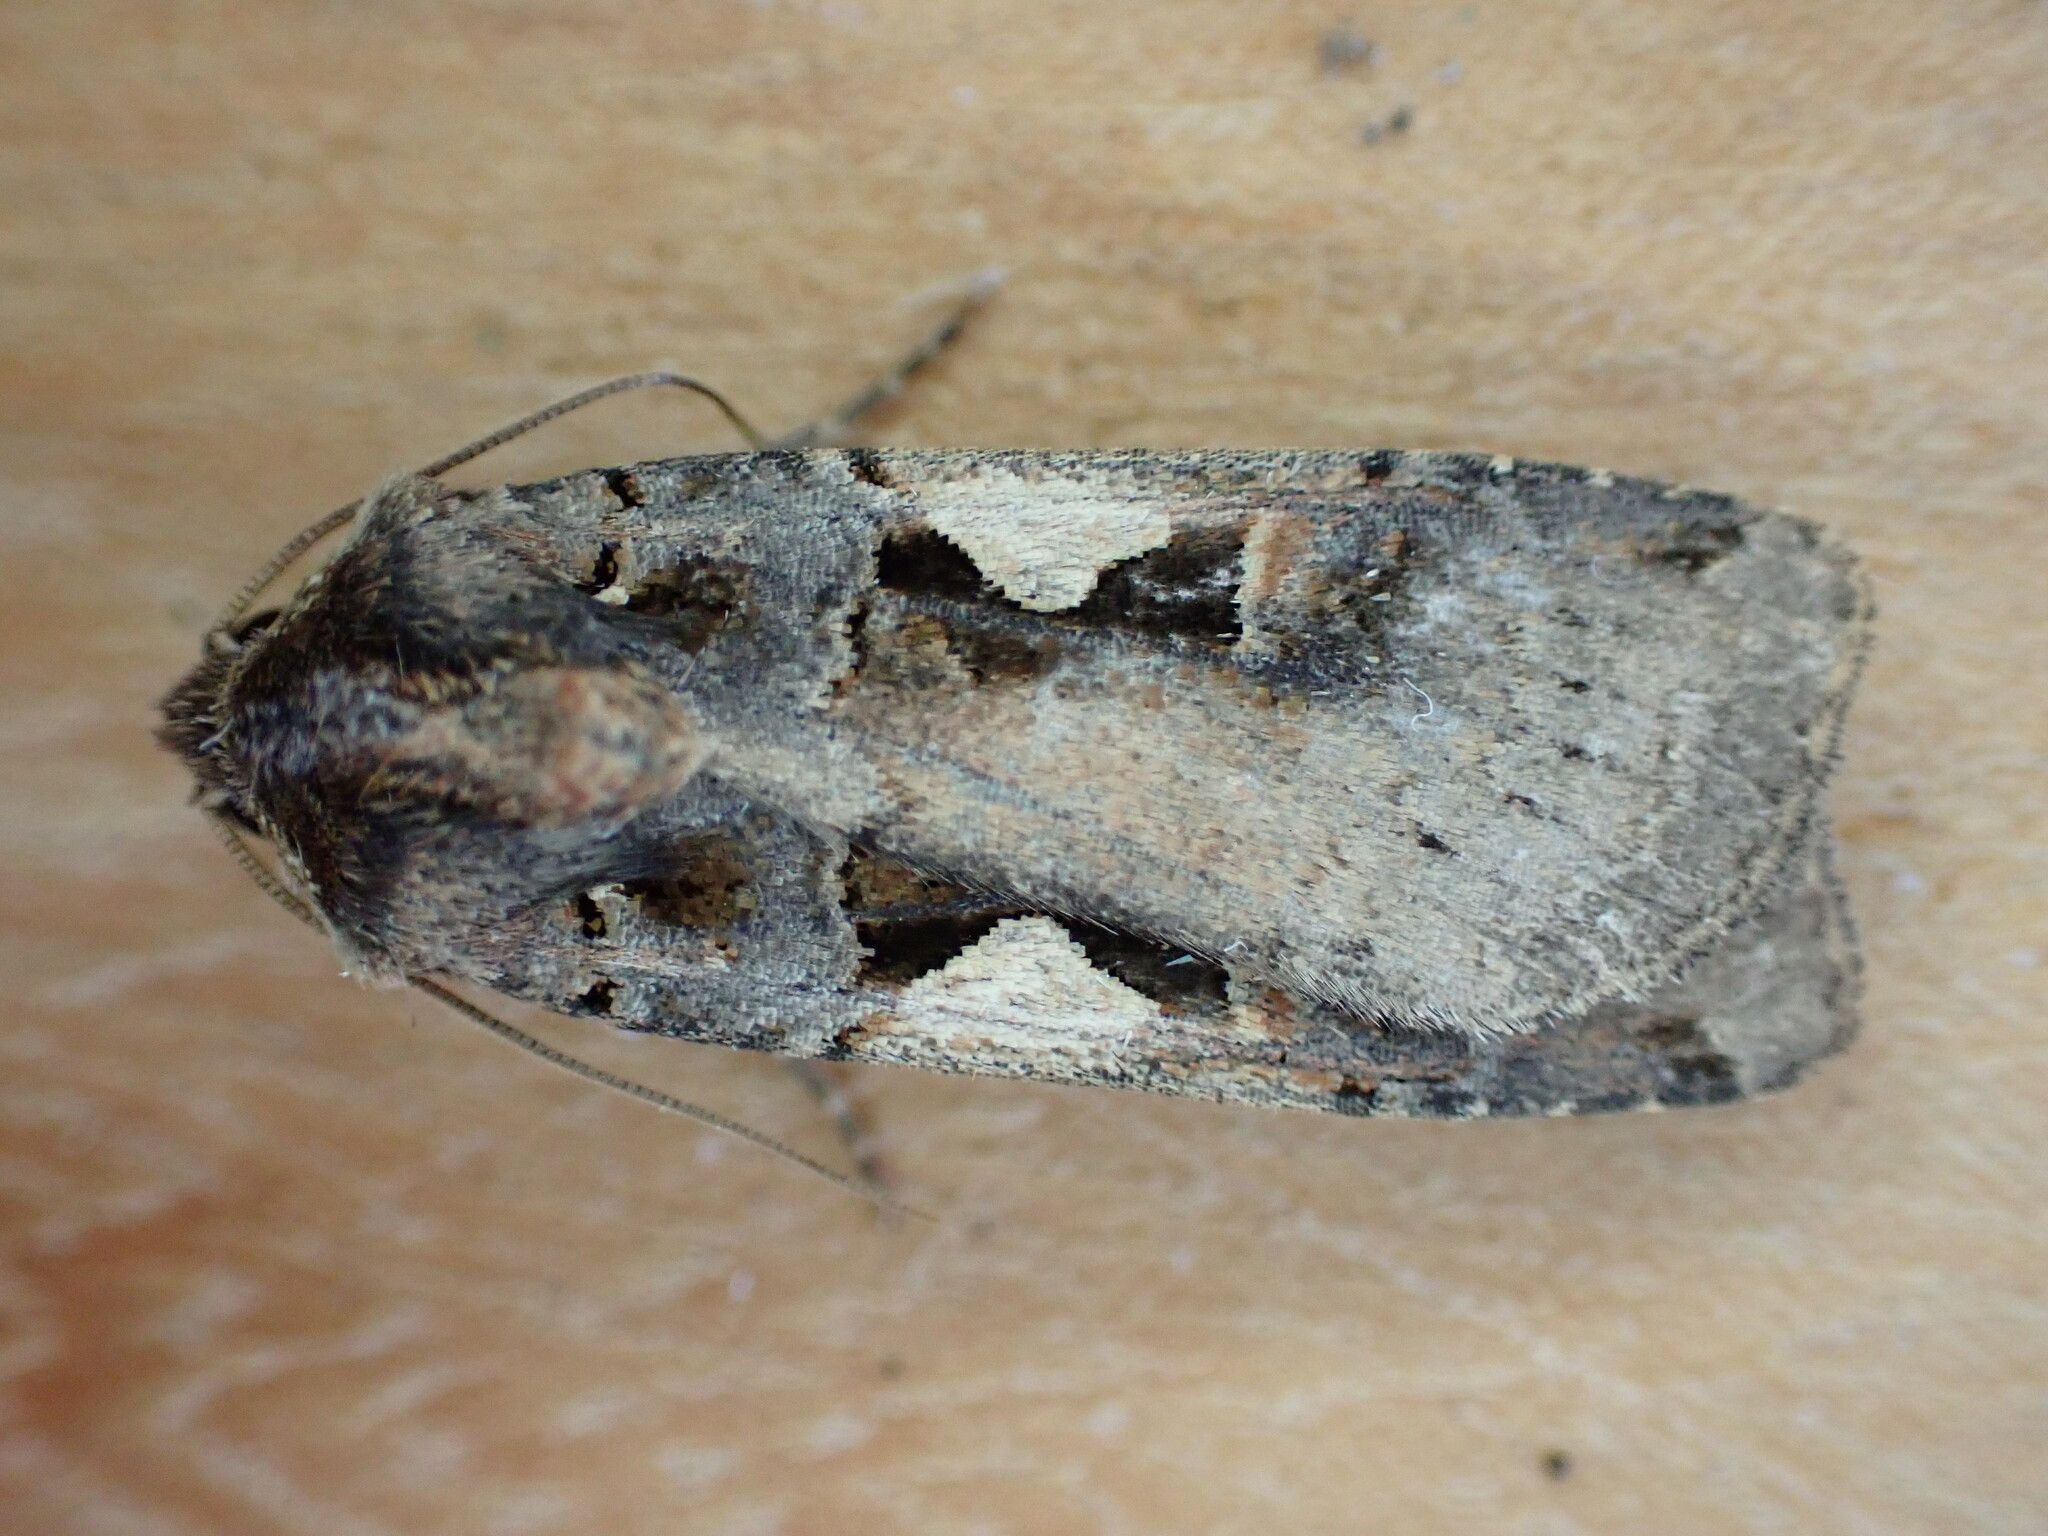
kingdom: Animalia
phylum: Arthropoda
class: Insecta
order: Lepidoptera
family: Noctuidae
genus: Xestia
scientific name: Xestia c-nigrum
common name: Setaceous hebrew character
